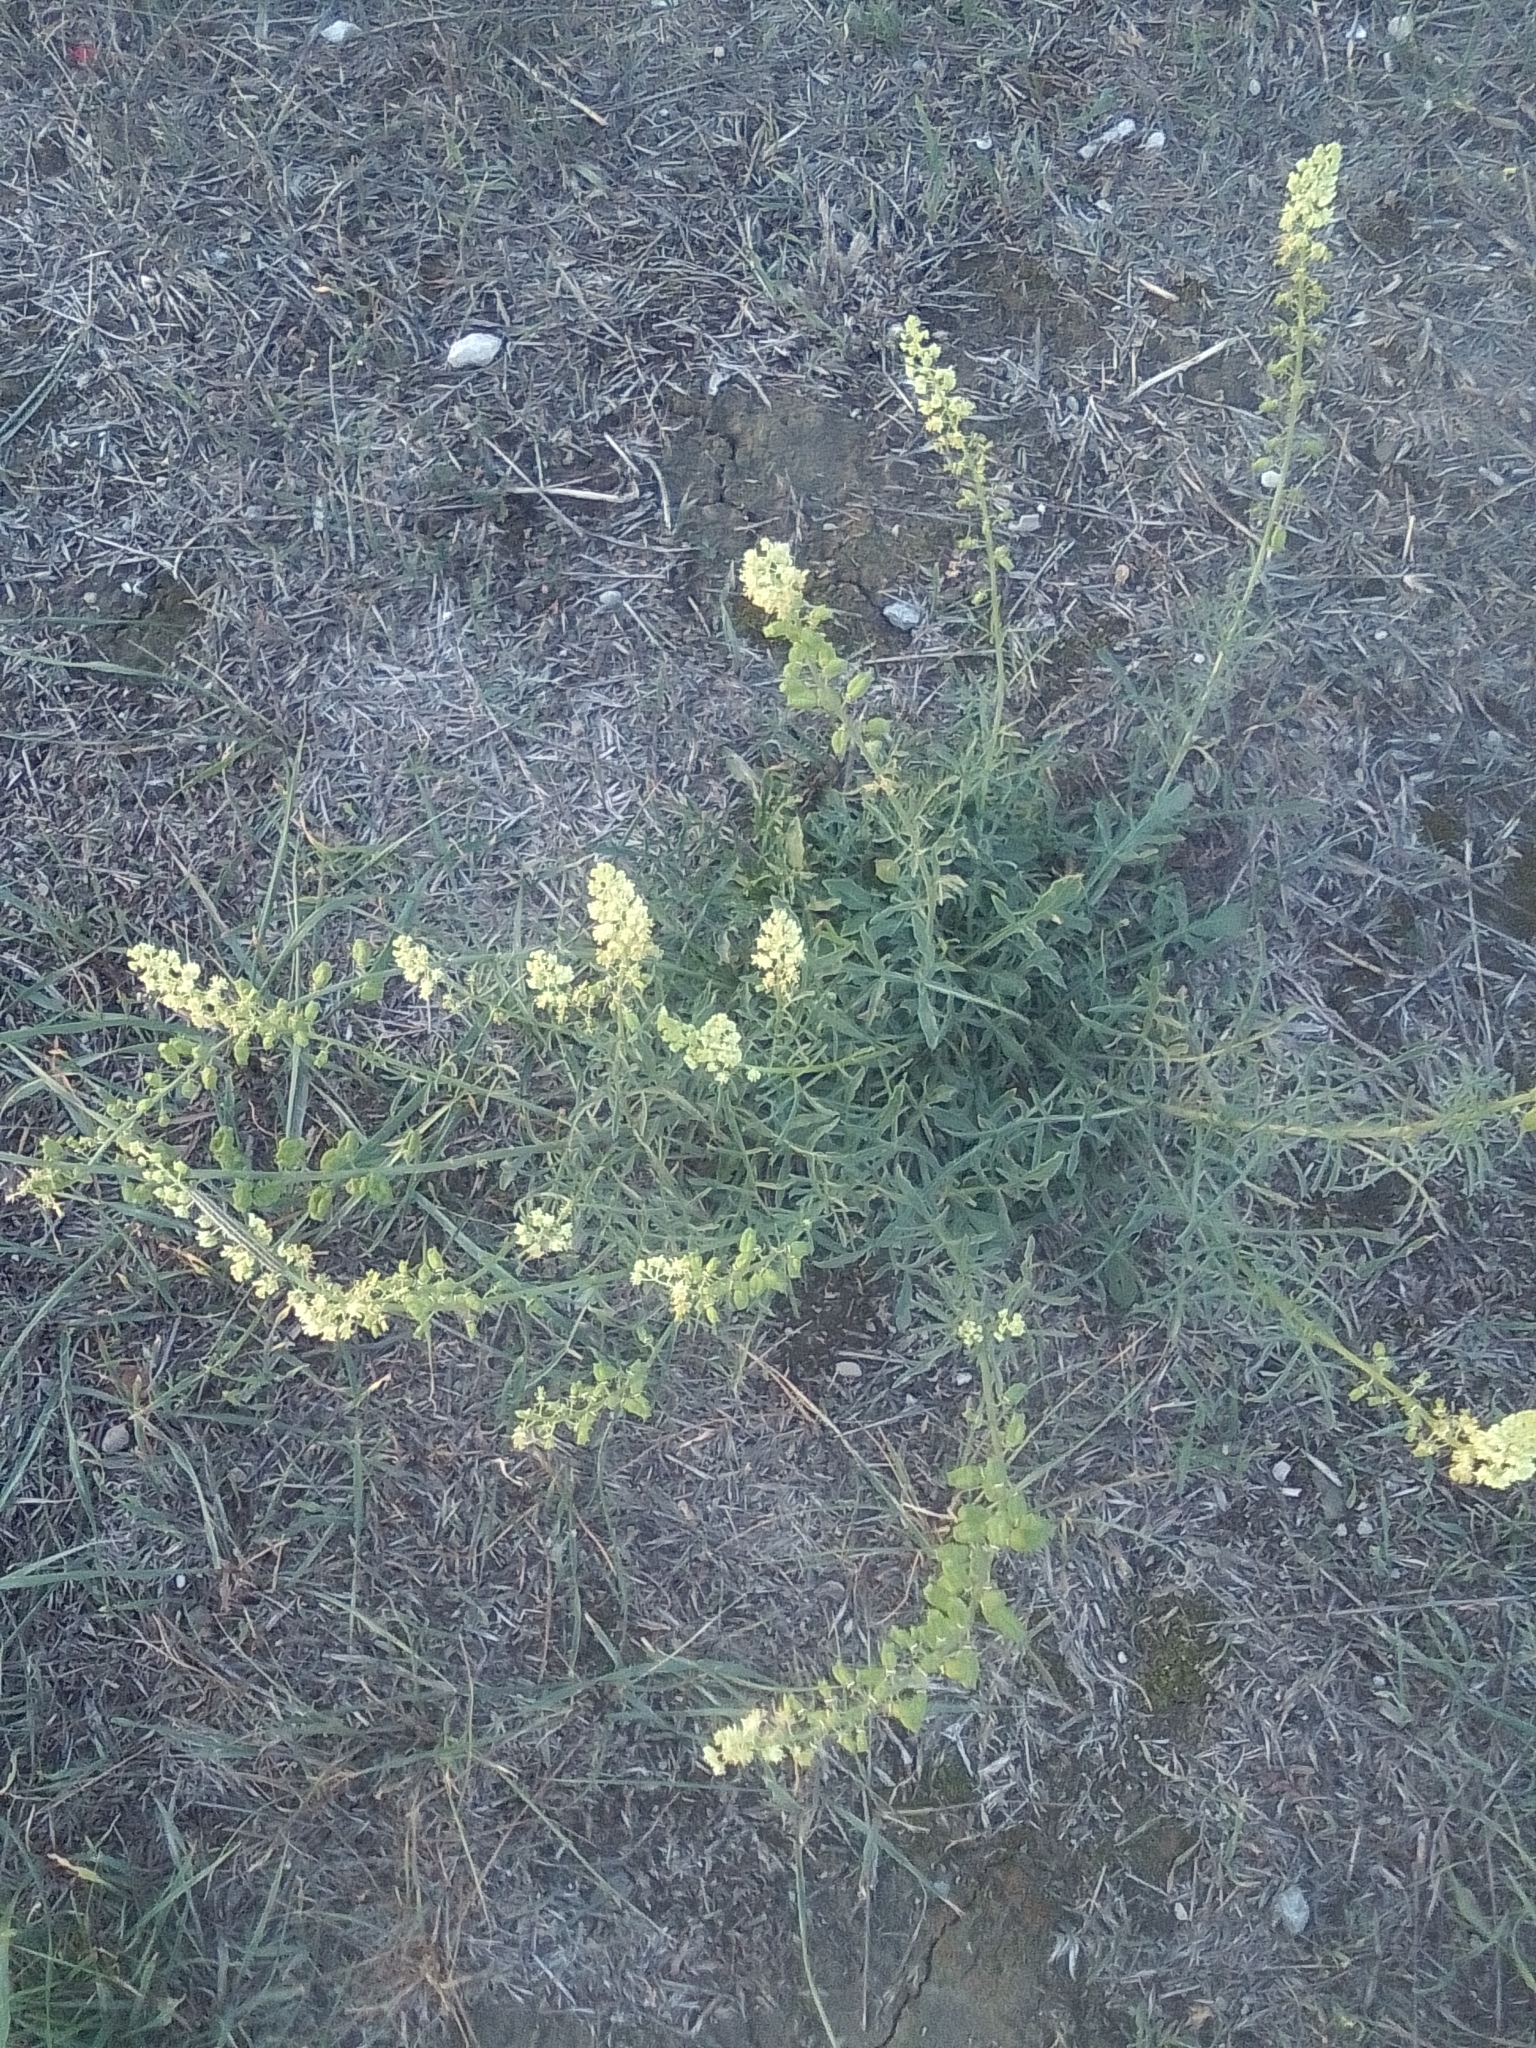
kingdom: Plantae
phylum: Tracheophyta
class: Magnoliopsida
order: Brassicales
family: Resedaceae
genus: Reseda
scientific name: Reseda lutea
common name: Wild mignonette
